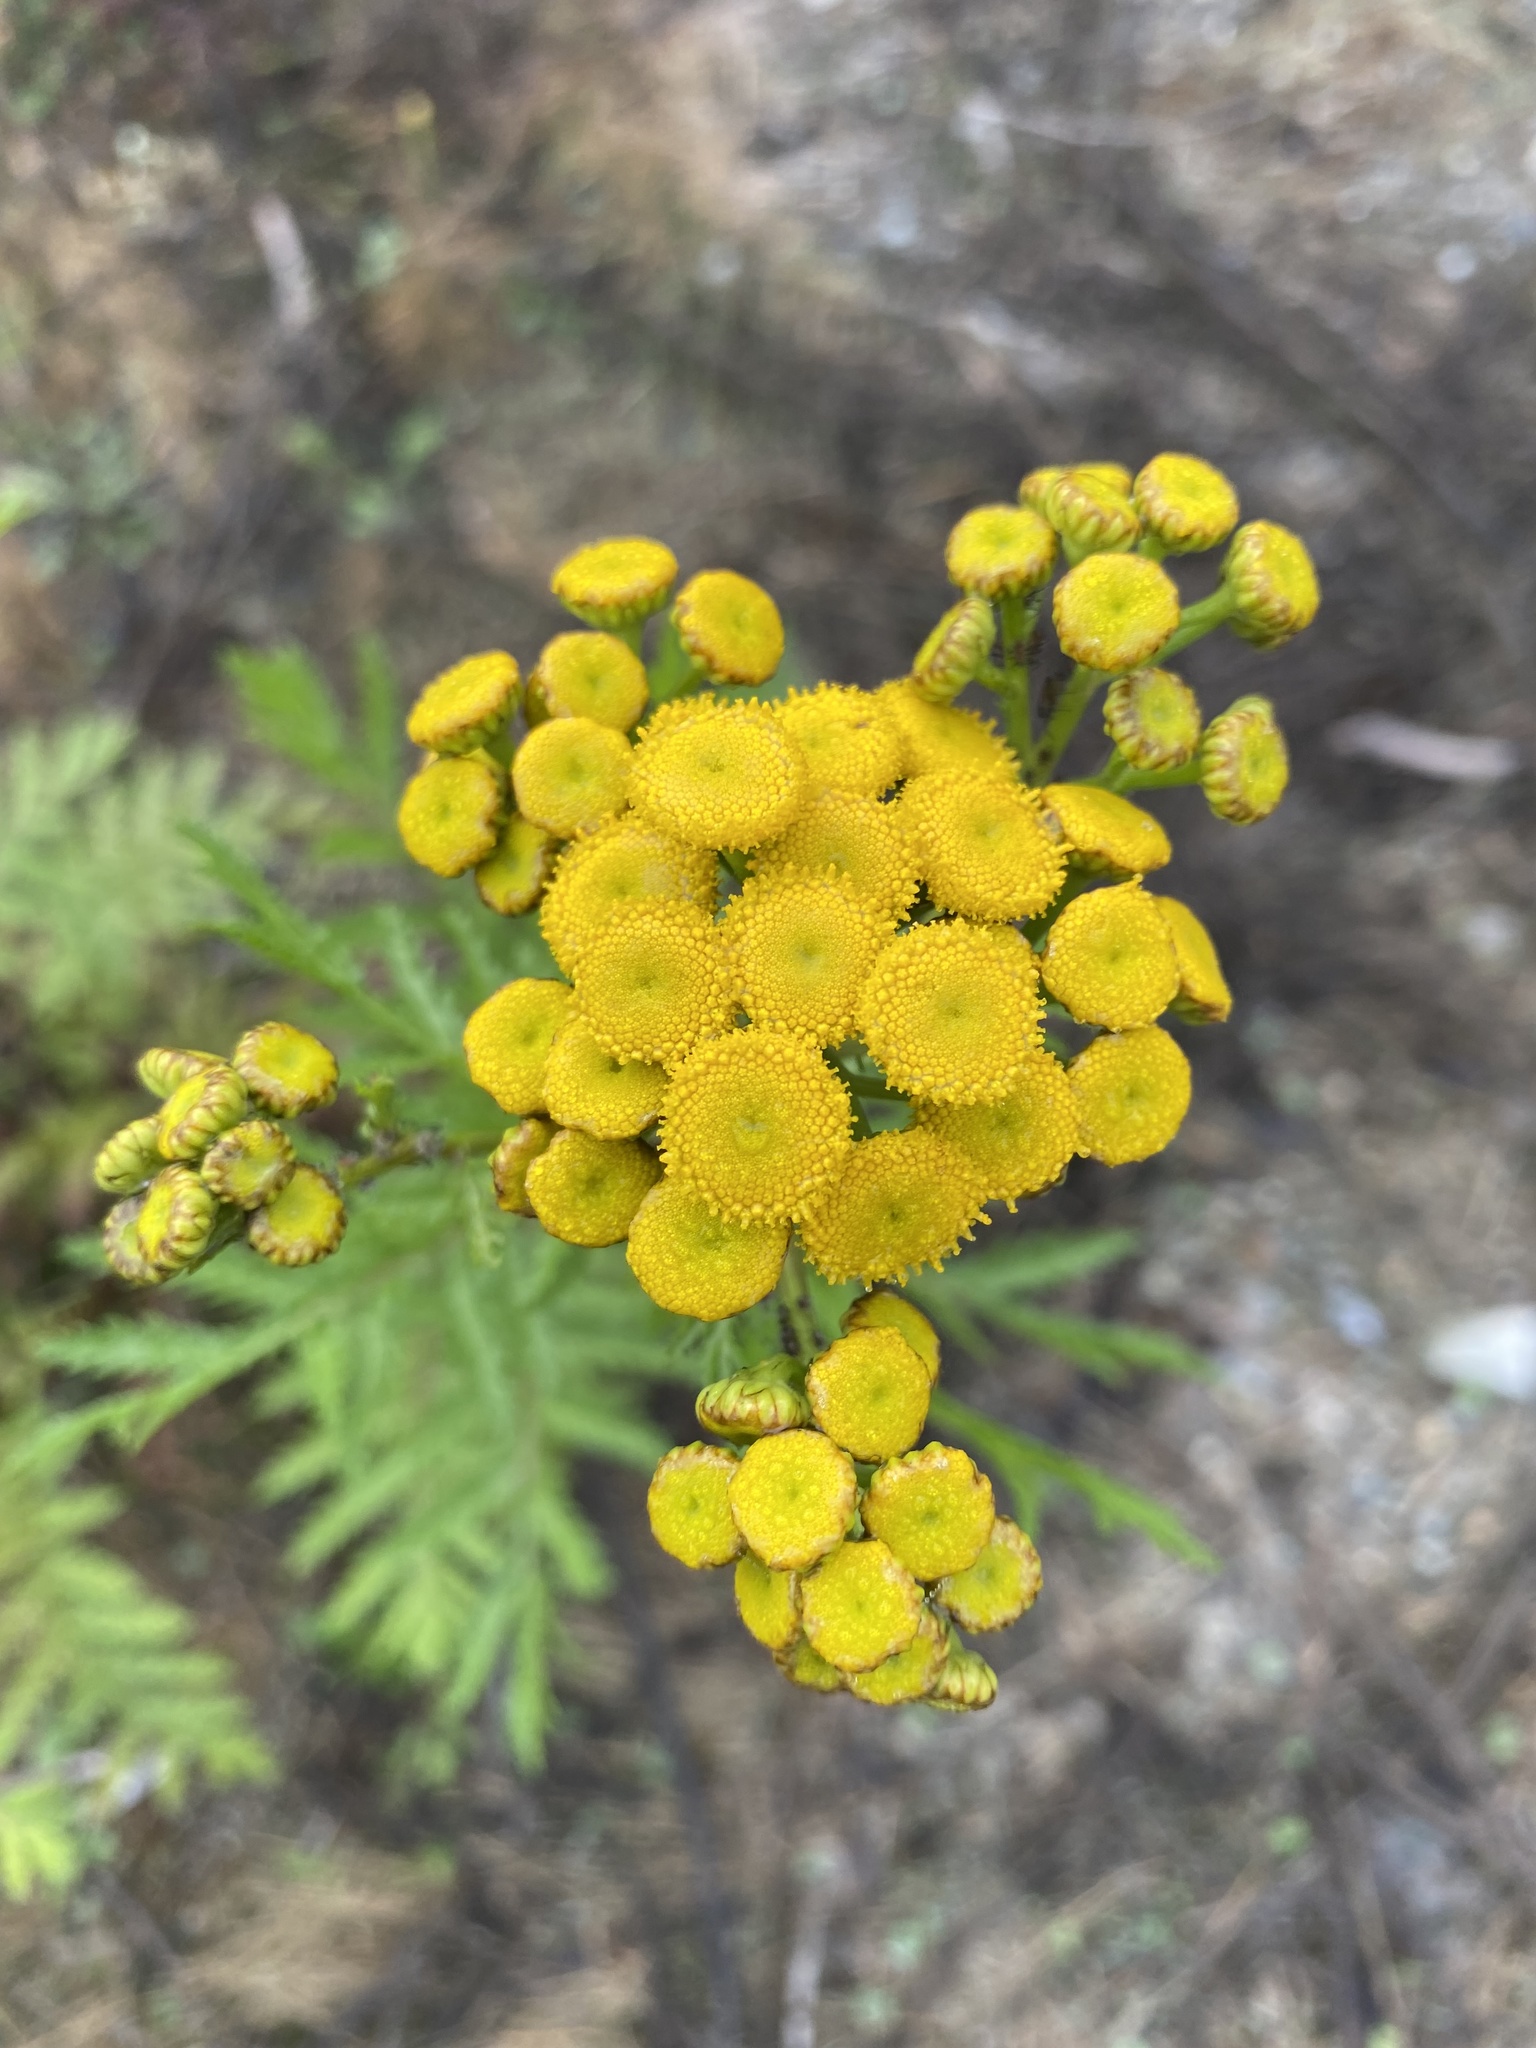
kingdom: Plantae
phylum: Tracheophyta
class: Magnoliopsida
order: Asterales
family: Asteraceae
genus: Tanacetum
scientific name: Tanacetum vulgare
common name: Common tansy
